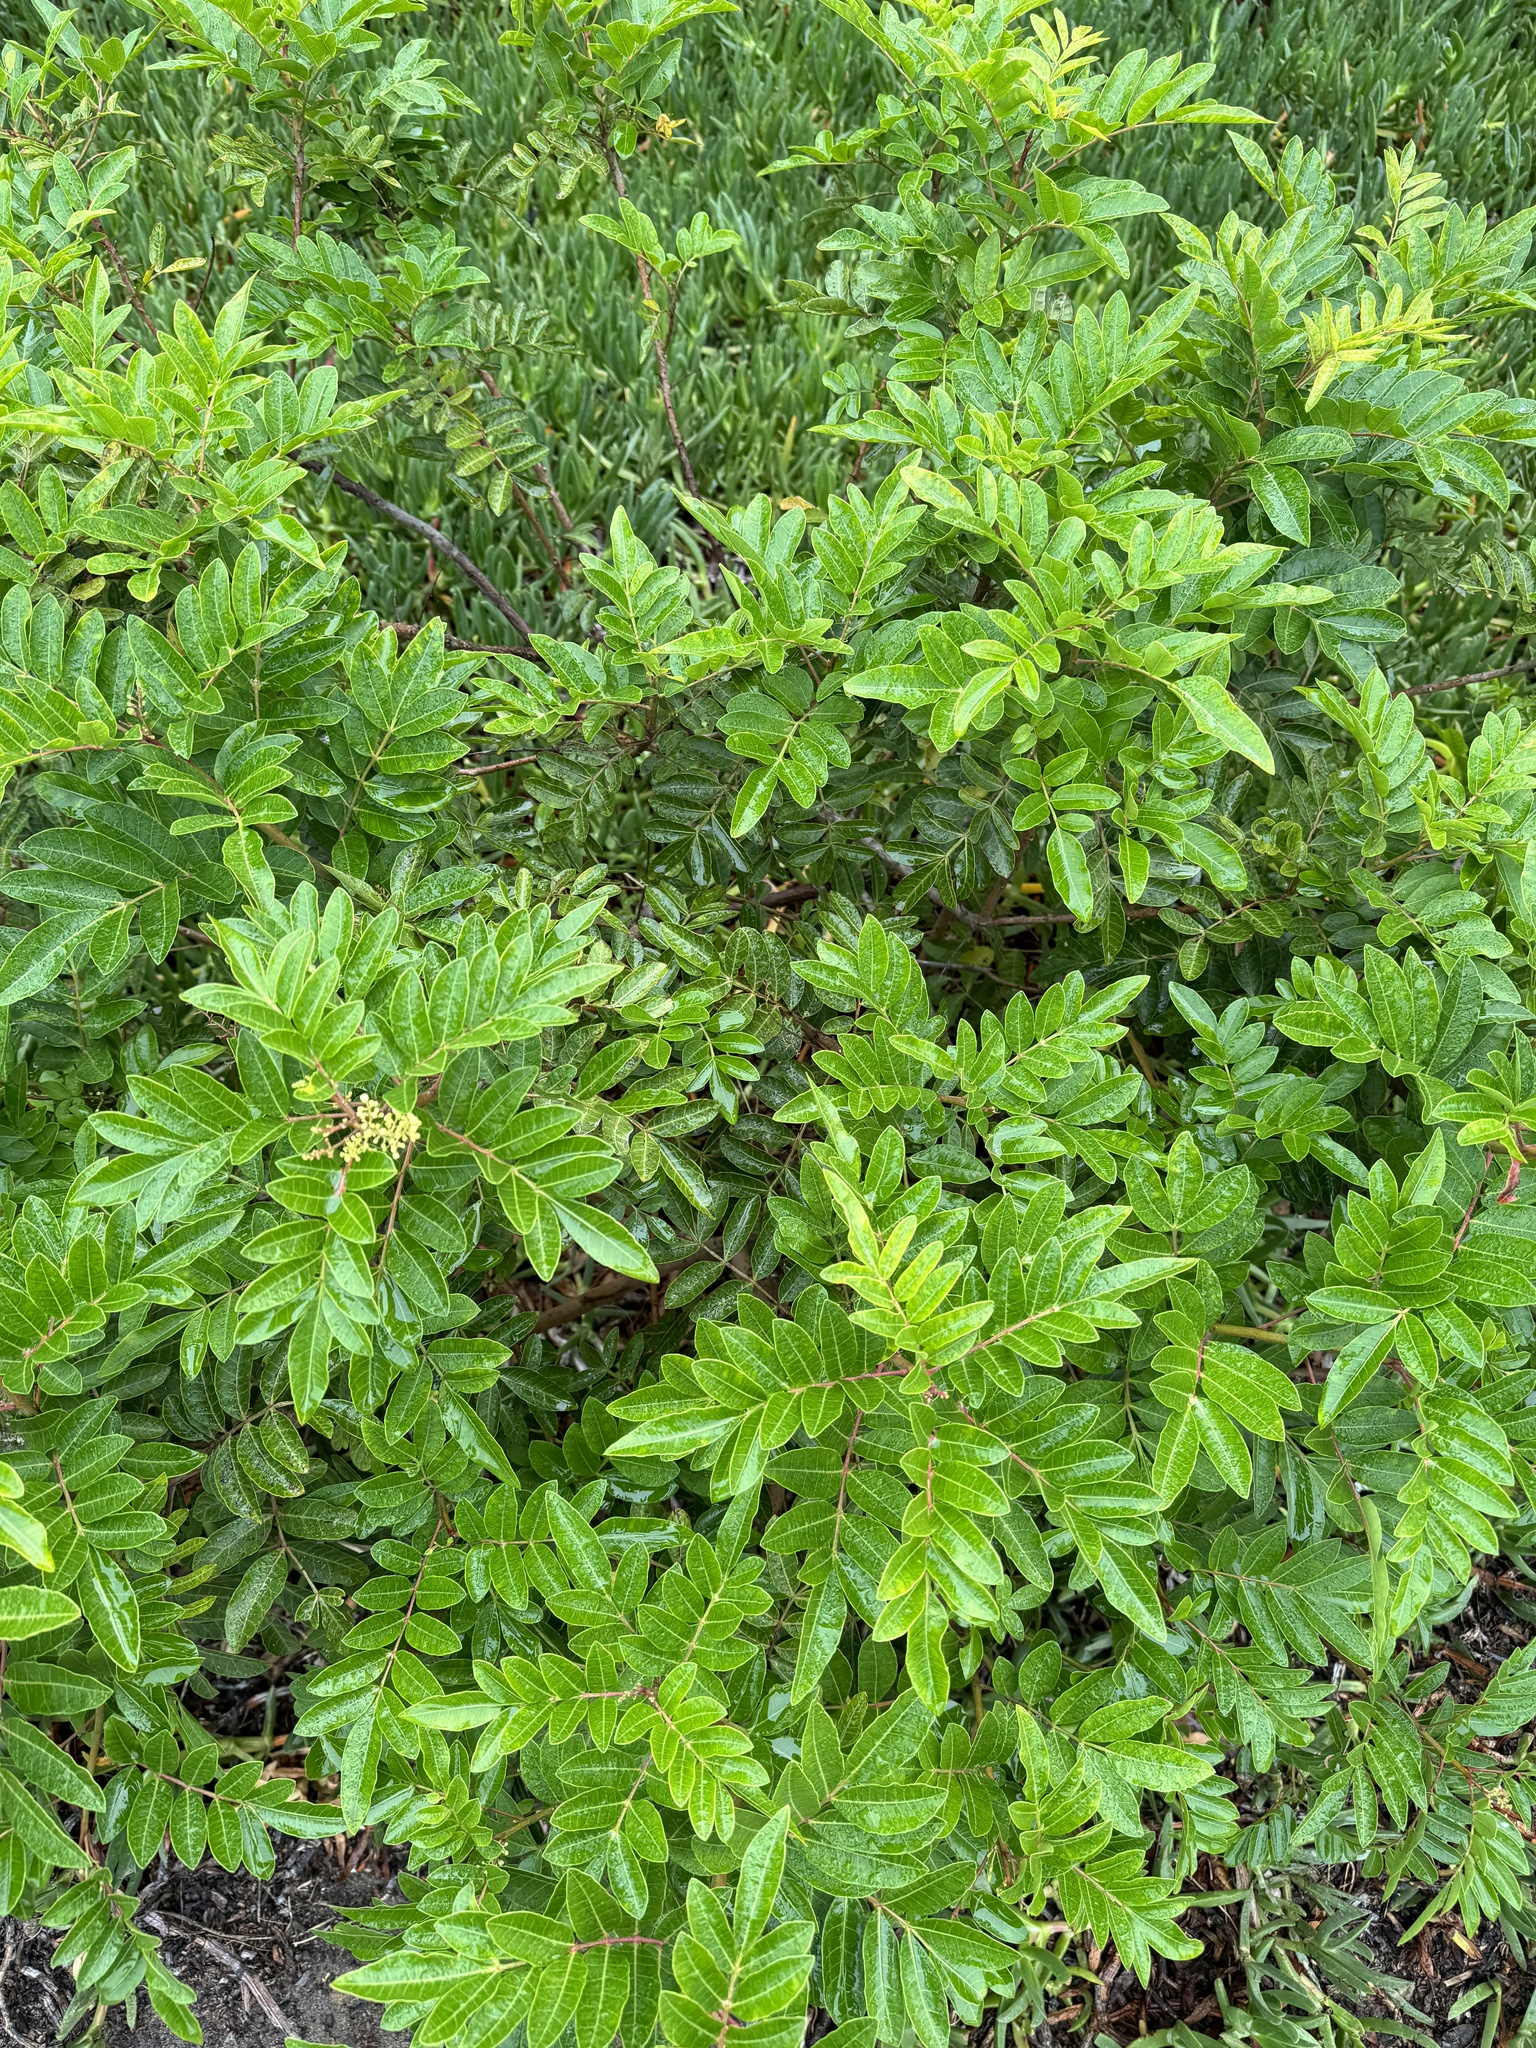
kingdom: Plantae
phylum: Tracheophyta
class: Magnoliopsida
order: Sapindales
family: Anacardiaceae
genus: Schinus
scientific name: Schinus terebinthifolia
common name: Brazilian peppertree
